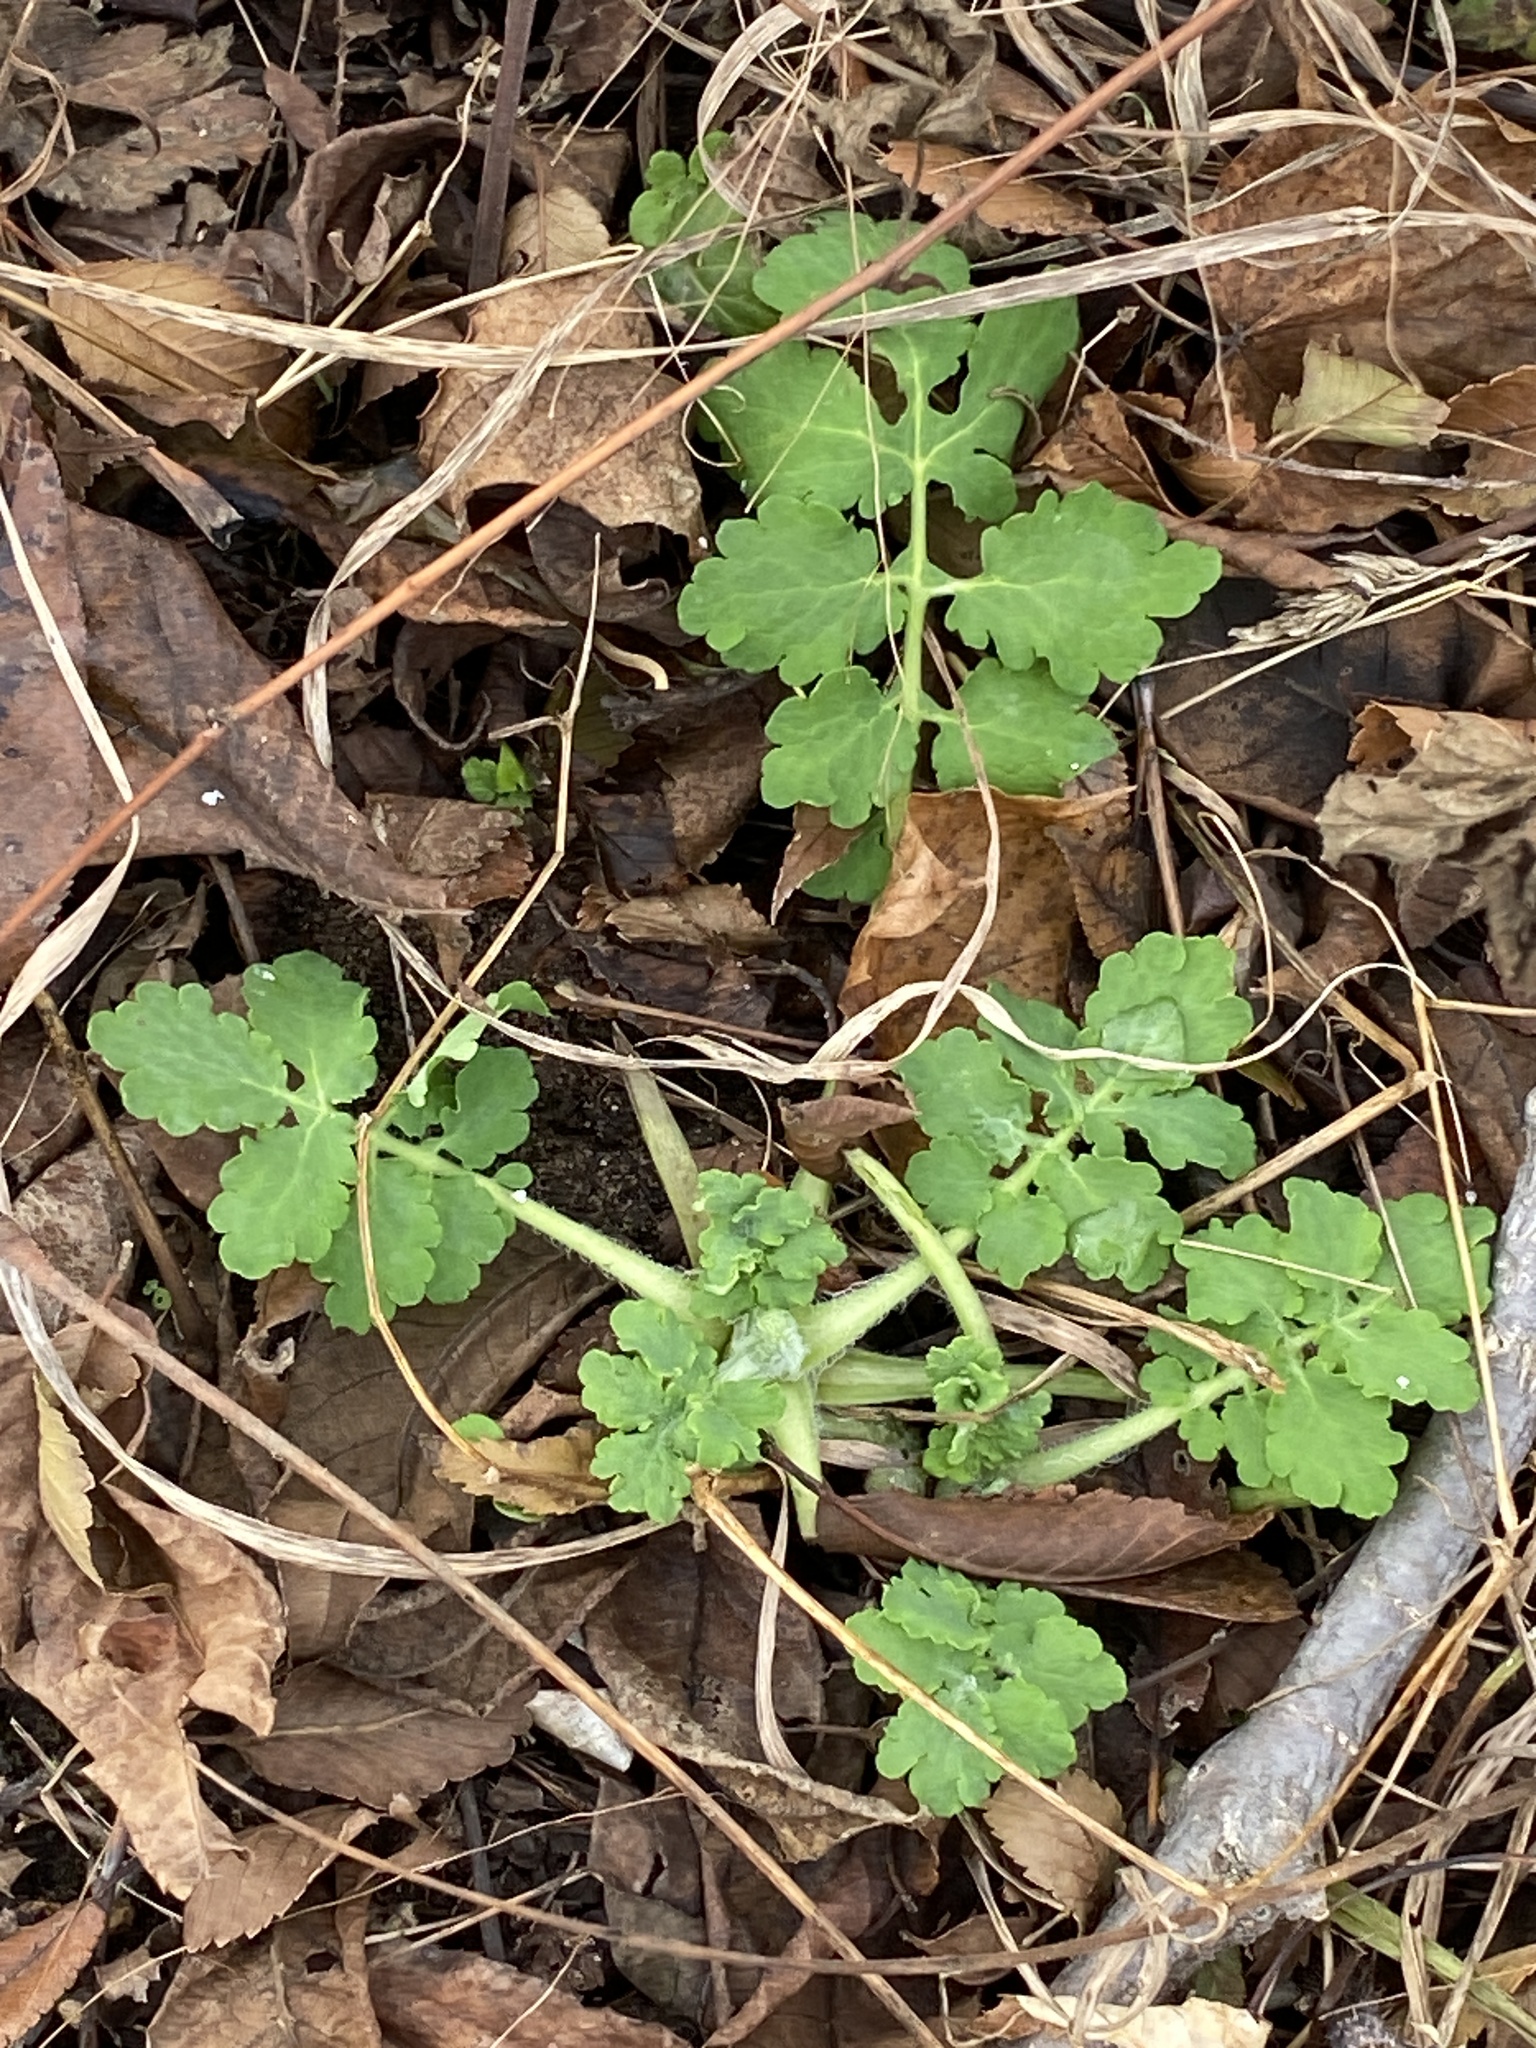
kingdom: Plantae
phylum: Tracheophyta
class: Magnoliopsida
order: Ranunculales
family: Papaveraceae
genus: Chelidonium
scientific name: Chelidonium majus
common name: Greater celandine
